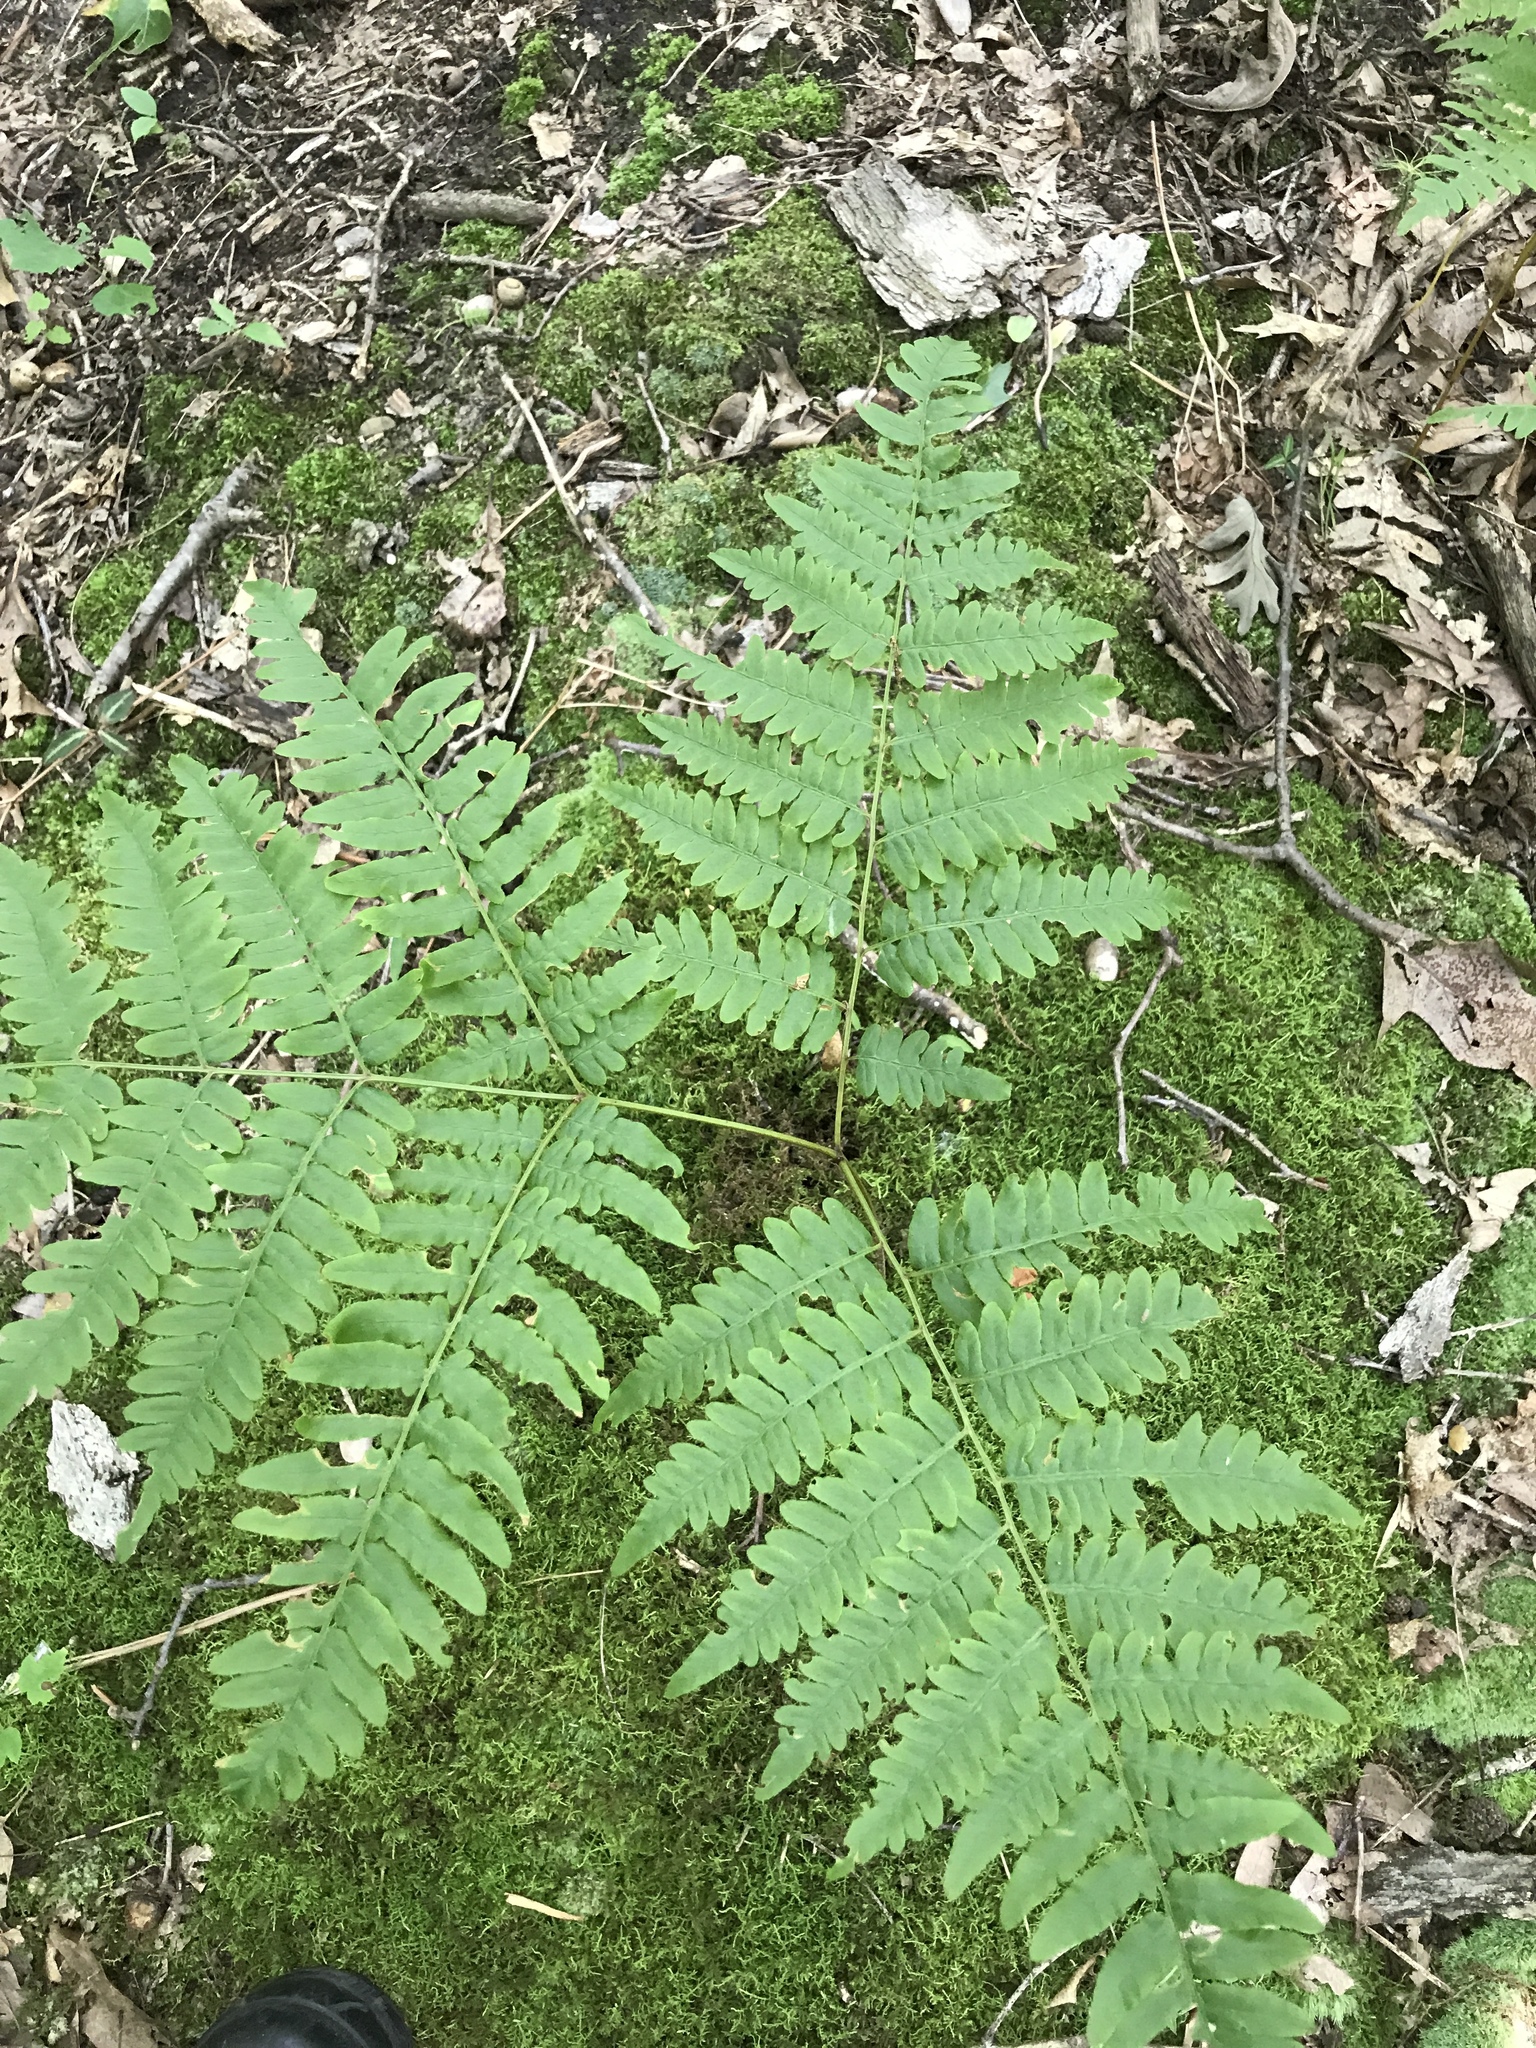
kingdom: Plantae
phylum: Tracheophyta
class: Polypodiopsida
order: Polypodiales
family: Dennstaedtiaceae
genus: Pteridium
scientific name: Pteridium aquilinum
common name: Bracken
